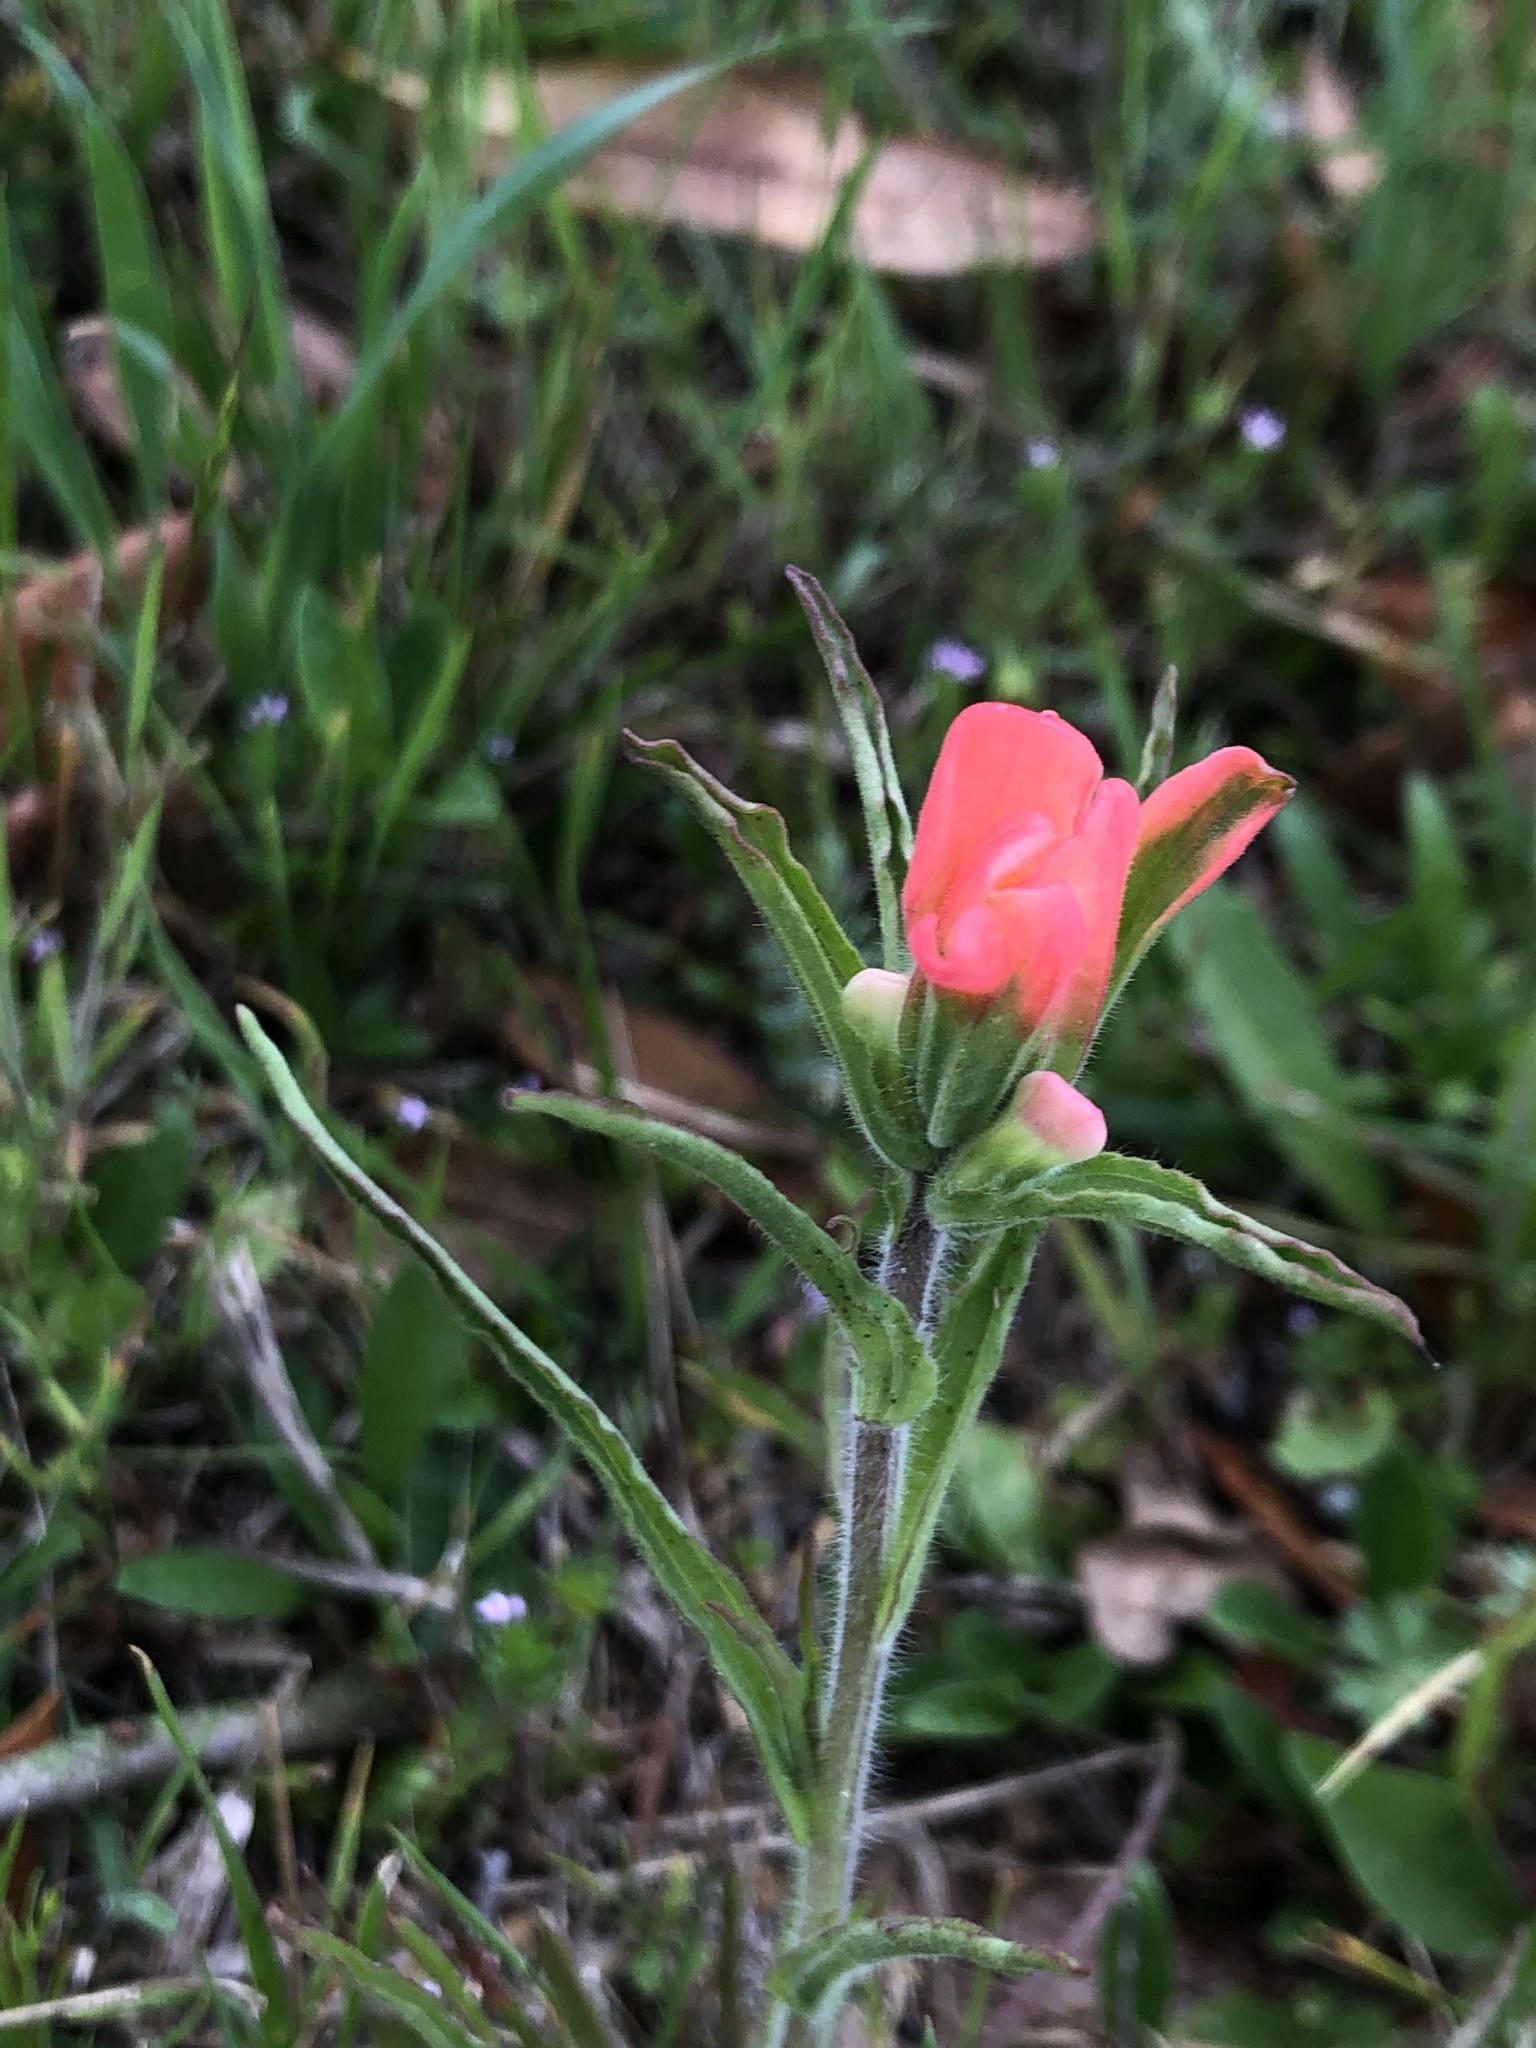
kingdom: Plantae
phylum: Tracheophyta
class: Magnoliopsida
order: Lamiales
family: Orobanchaceae
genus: Castilleja
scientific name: Castilleja indivisa
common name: Texas paintbrush
